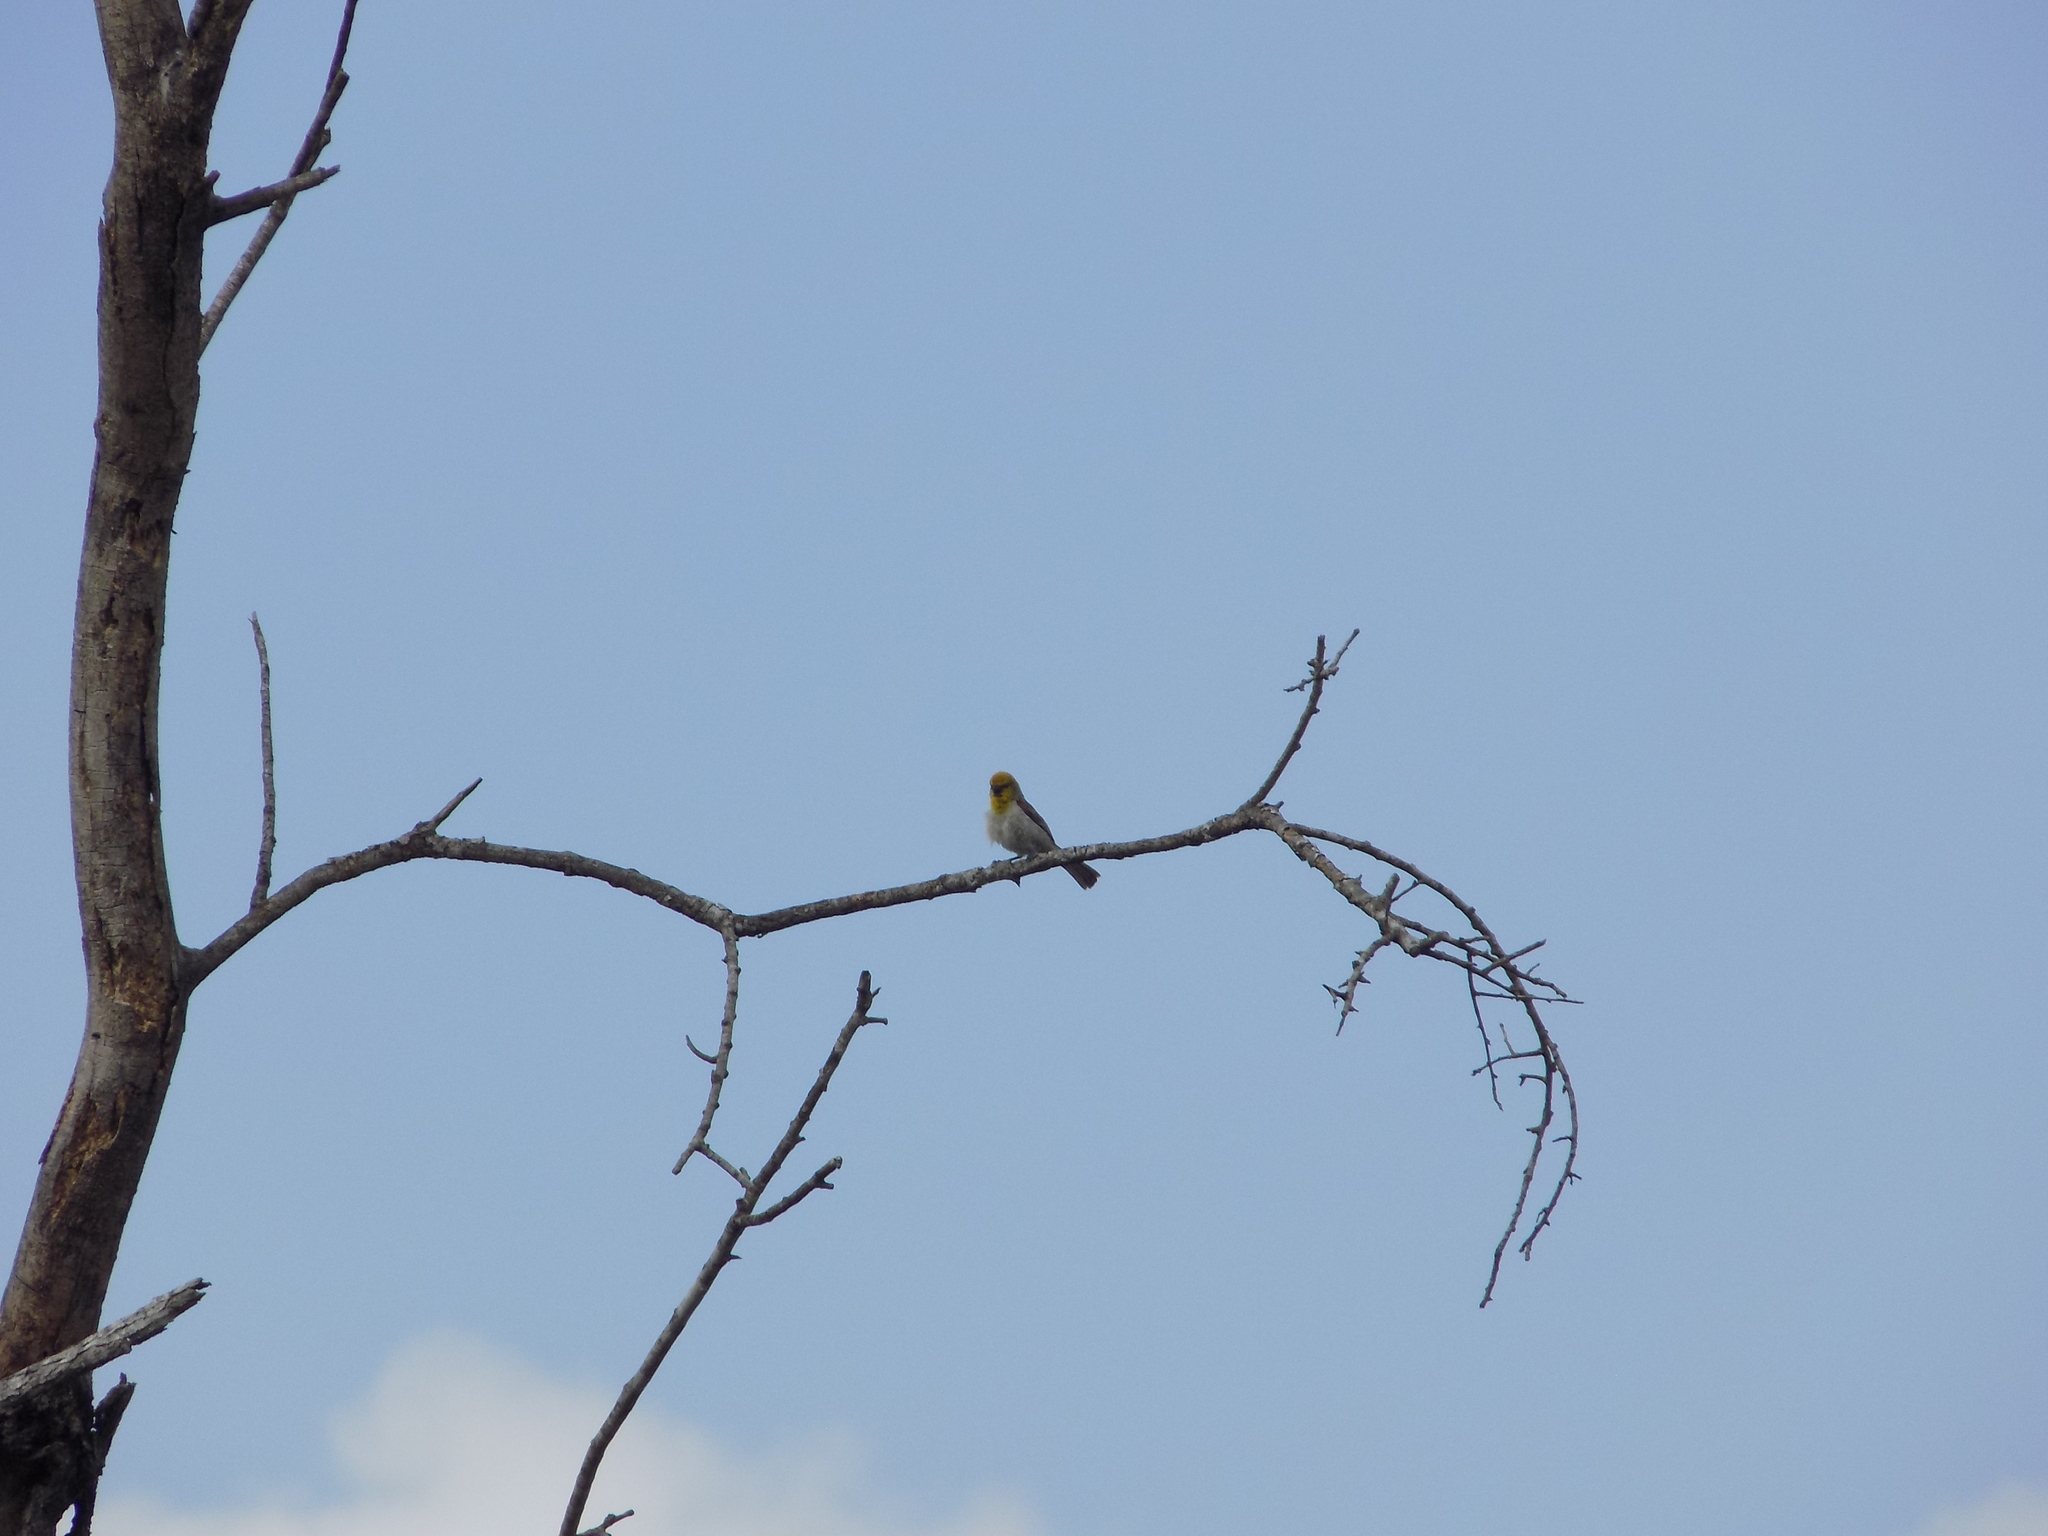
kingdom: Animalia
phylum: Chordata
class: Aves
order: Passeriformes
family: Remizidae
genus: Auriparus
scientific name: Auriparus flaviceps
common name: Verdin
